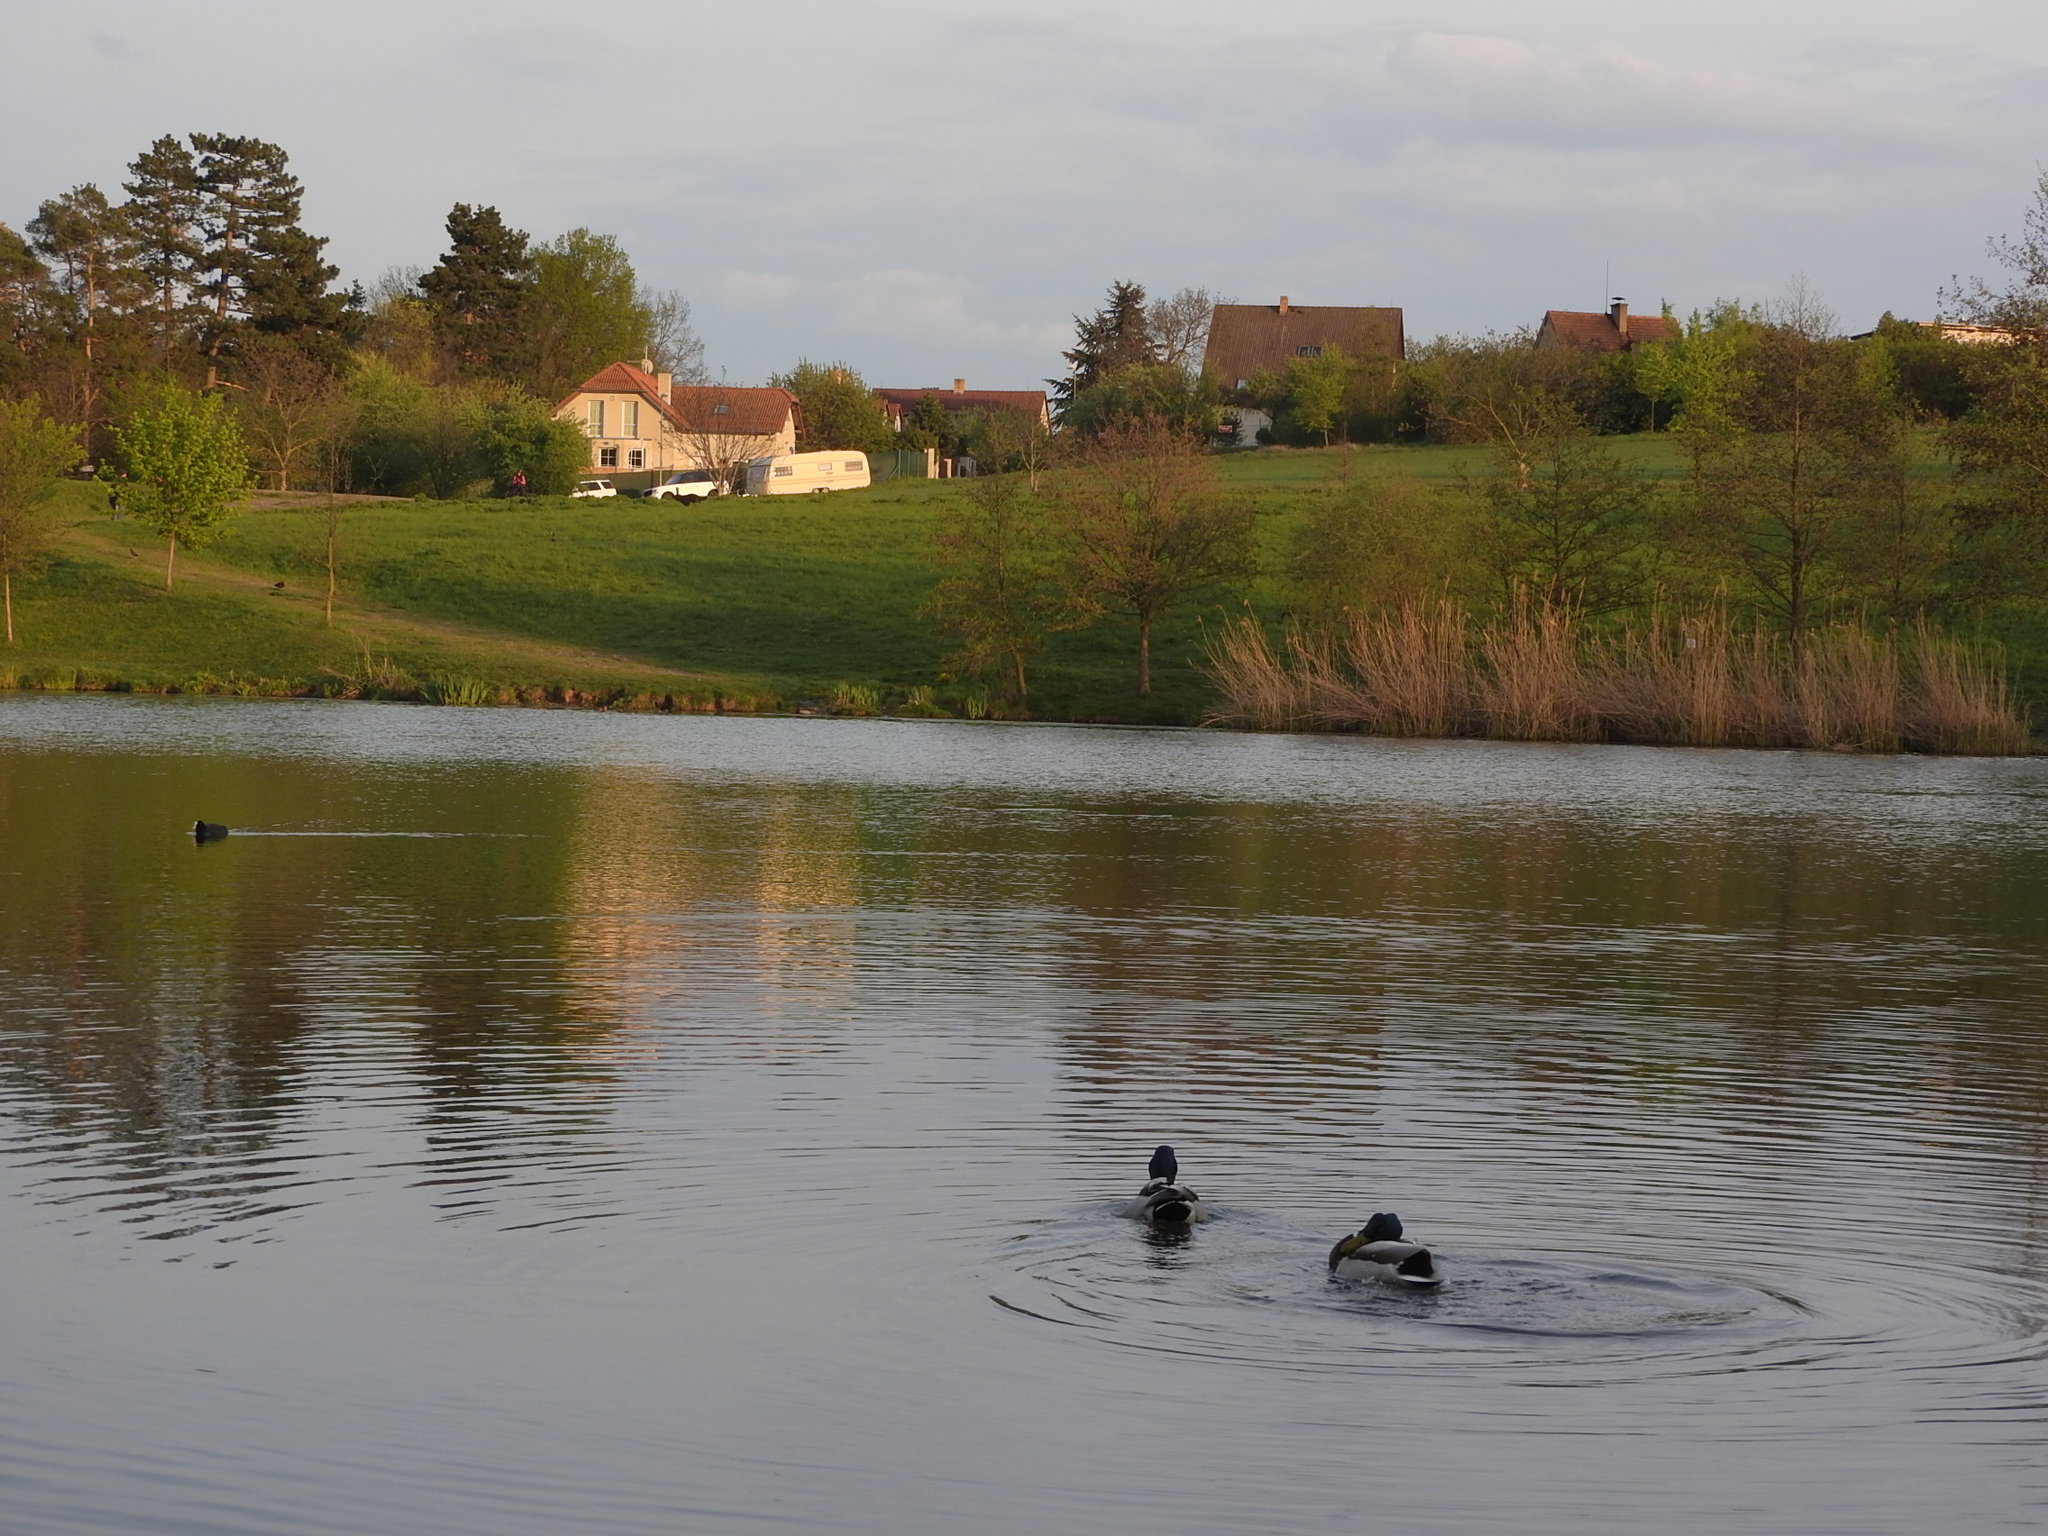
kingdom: Animalia
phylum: Chordata
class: Aves
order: Anseriformes
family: Anatidae
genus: Anas
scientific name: Anas platyrhynchos
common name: Mallard
